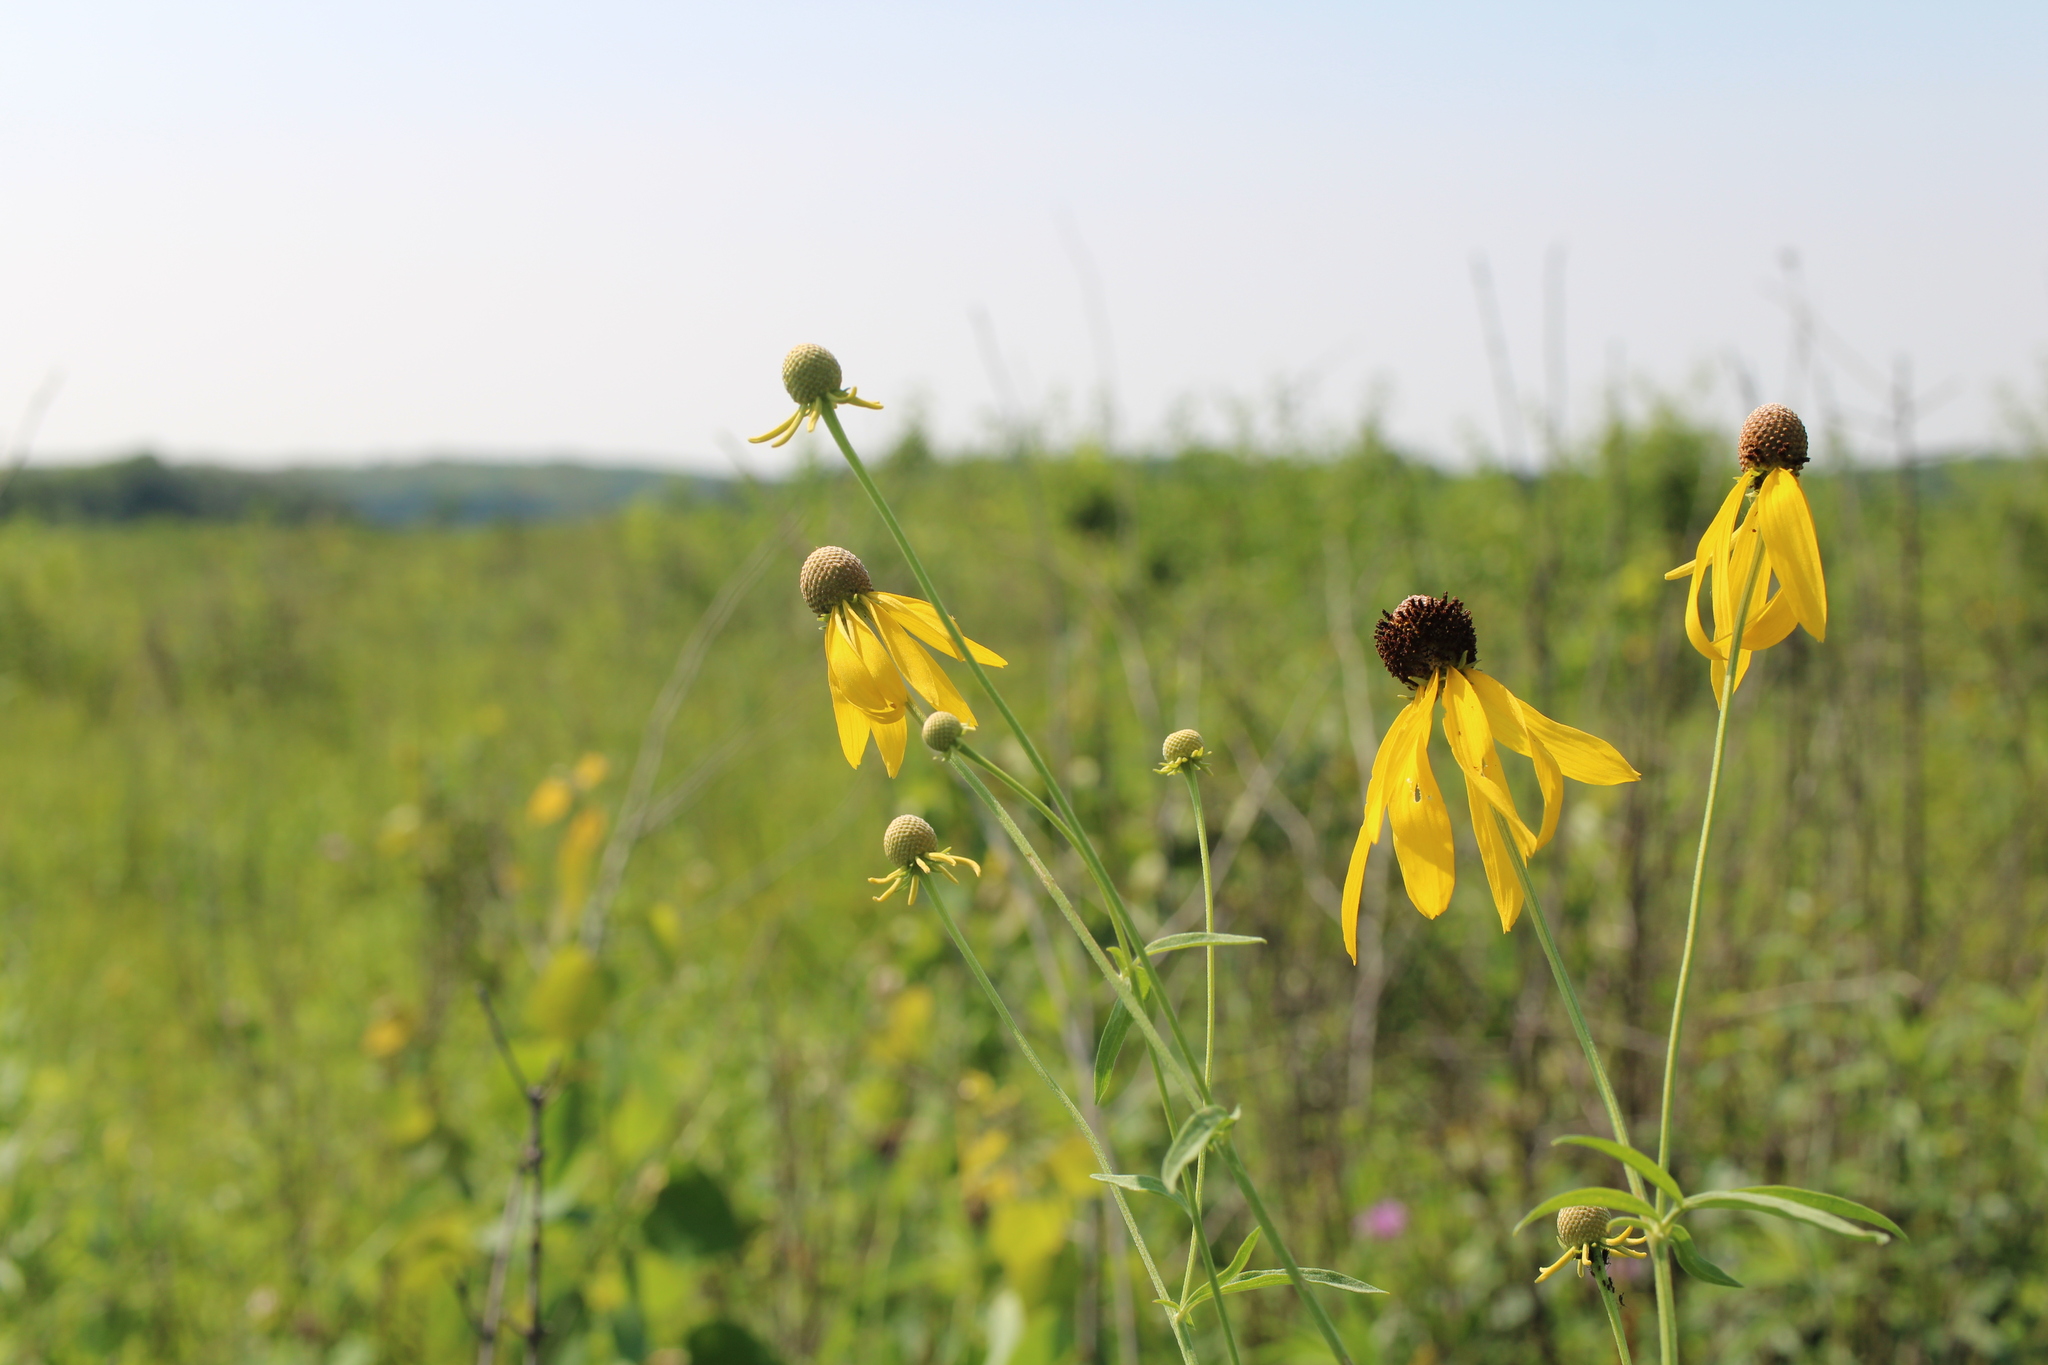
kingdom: Plantae
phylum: Tracheophyta
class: Magnoliopsida
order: Asterales
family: Asteraceae
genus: Ratibida
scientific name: Ratibida pinnata
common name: Drooping prairie-coneflower
